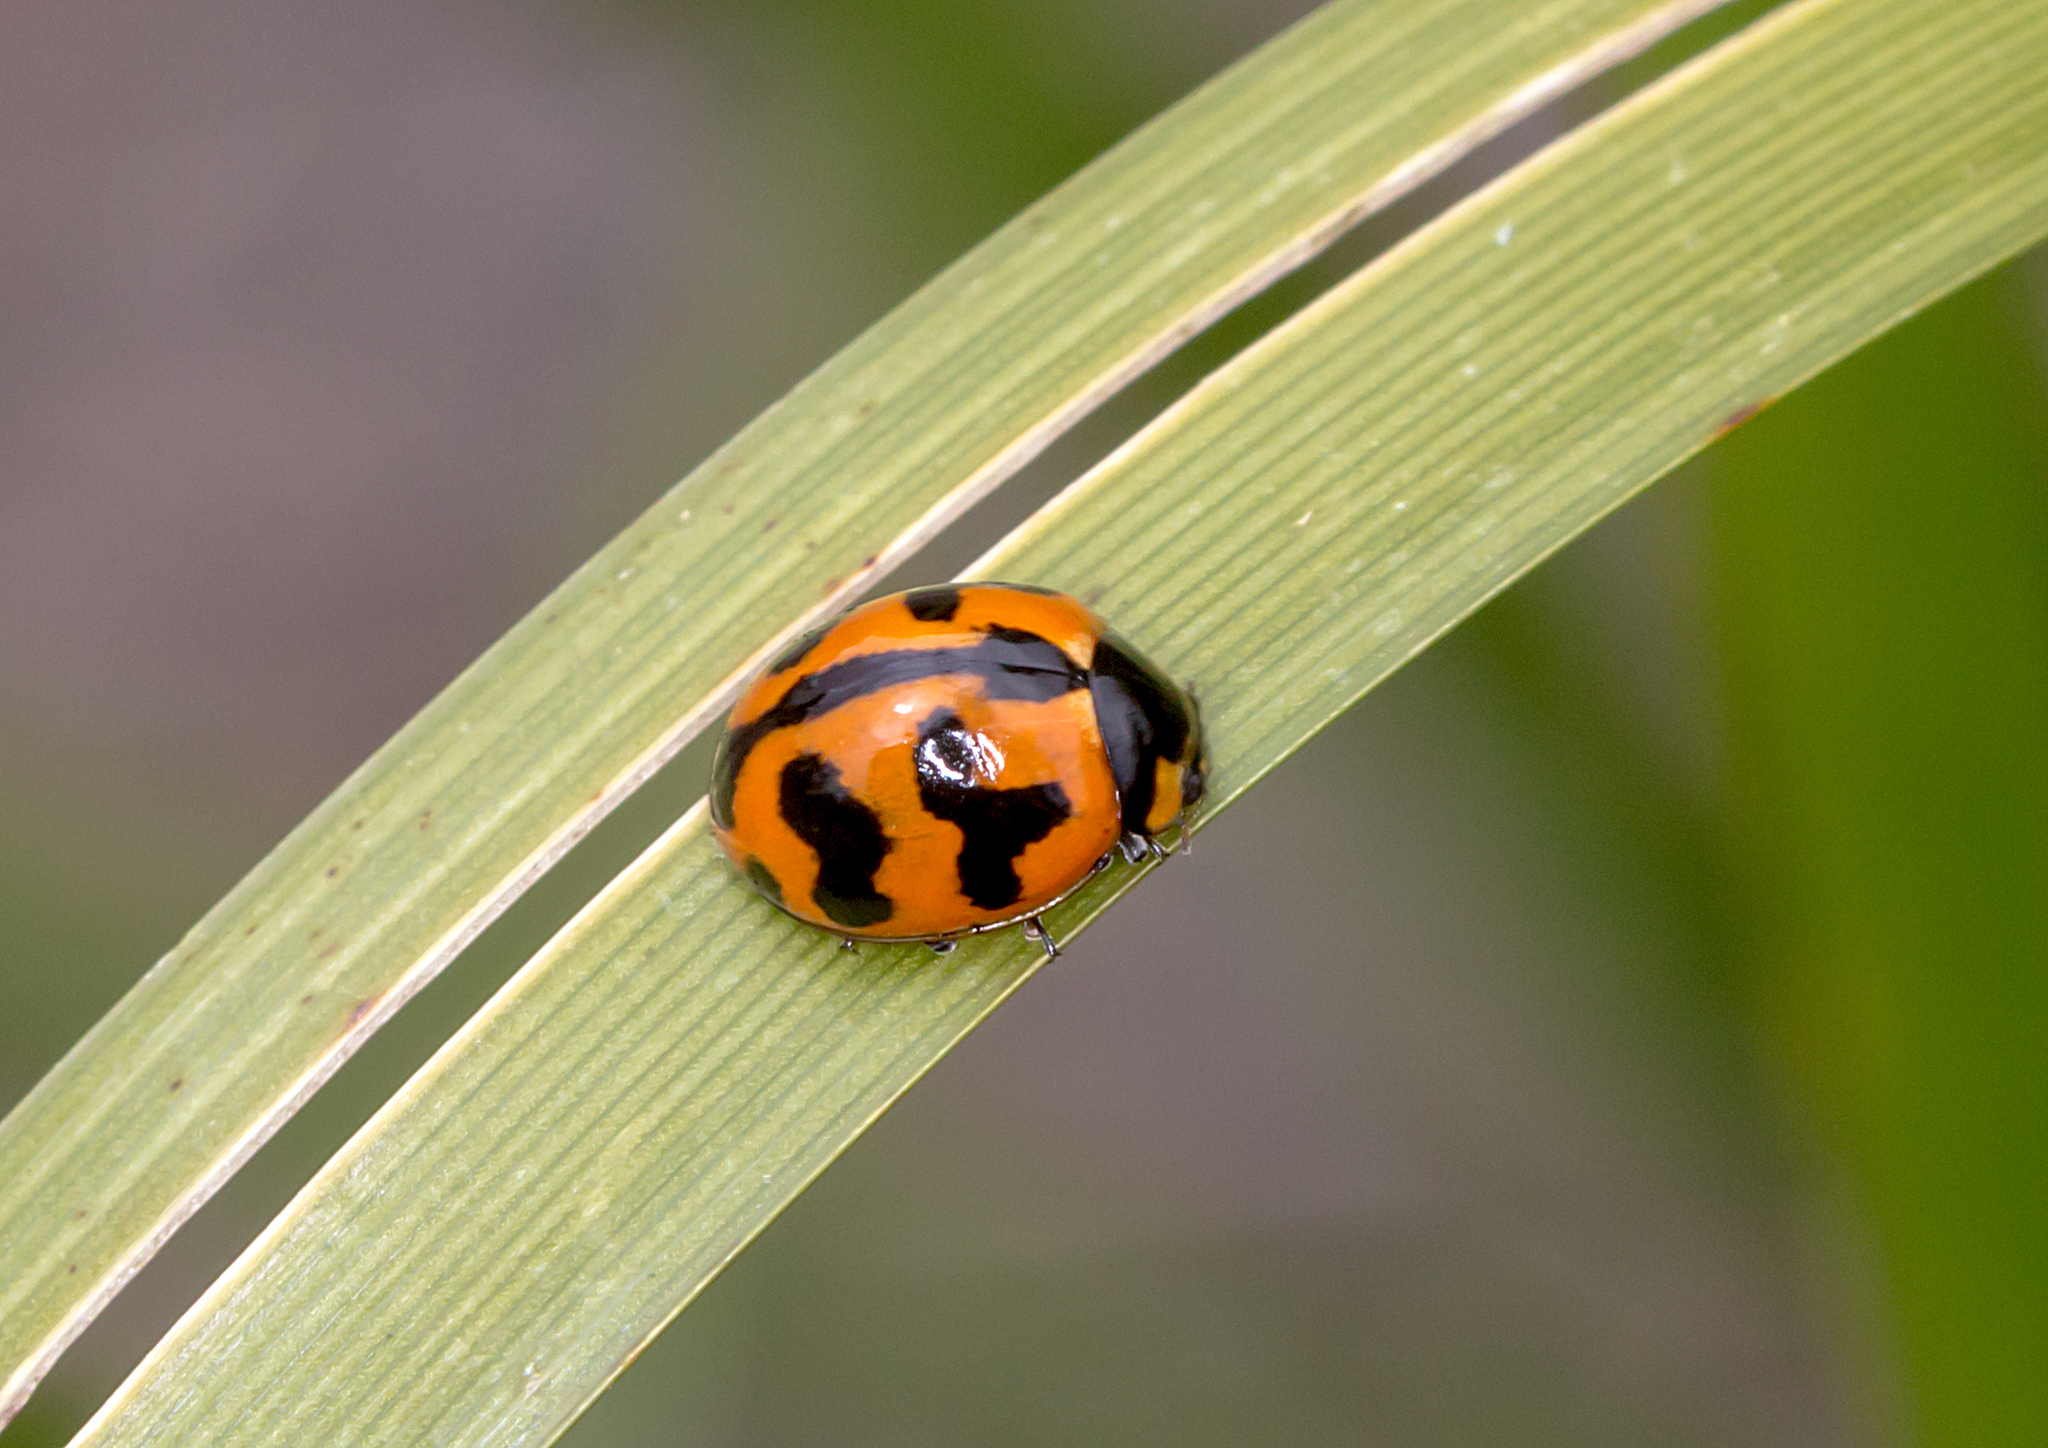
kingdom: Animalia
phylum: Arthropoda
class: Insecta
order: Coleoptera
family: Coccinellidae
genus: Coccinella
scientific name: Coccinella transversalis
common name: Transverse lady beetle
